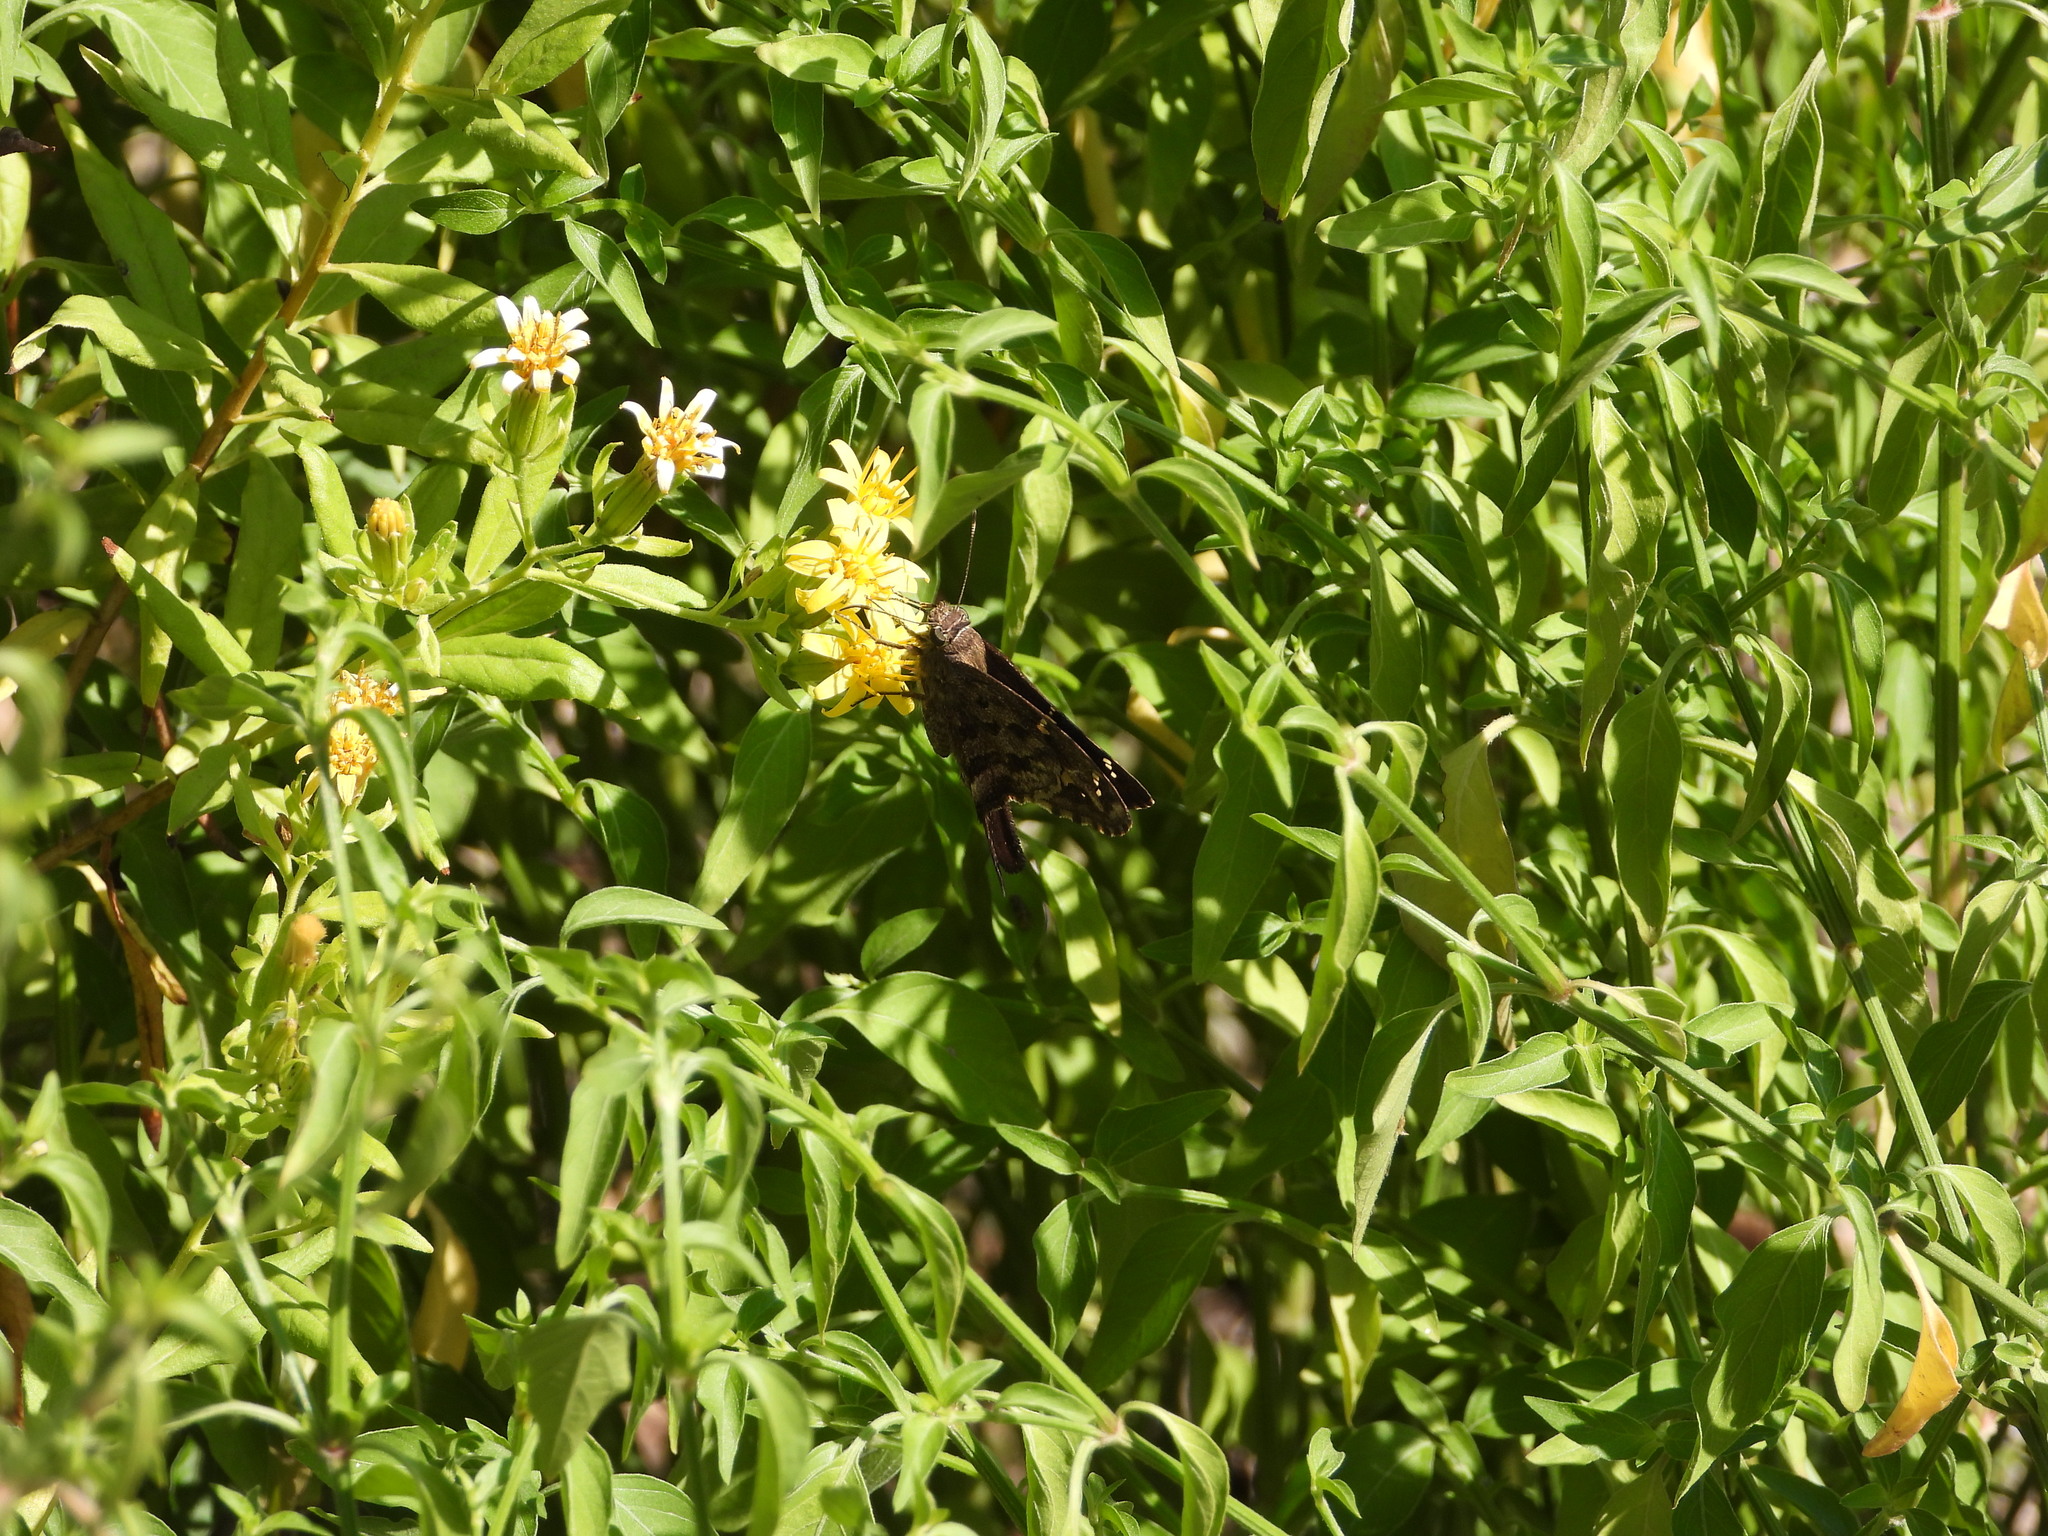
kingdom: Animalia
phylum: Arthropoda
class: Insecta
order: Lepidoptera
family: Hesperiidae
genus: Thorybes
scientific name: Thorybes
